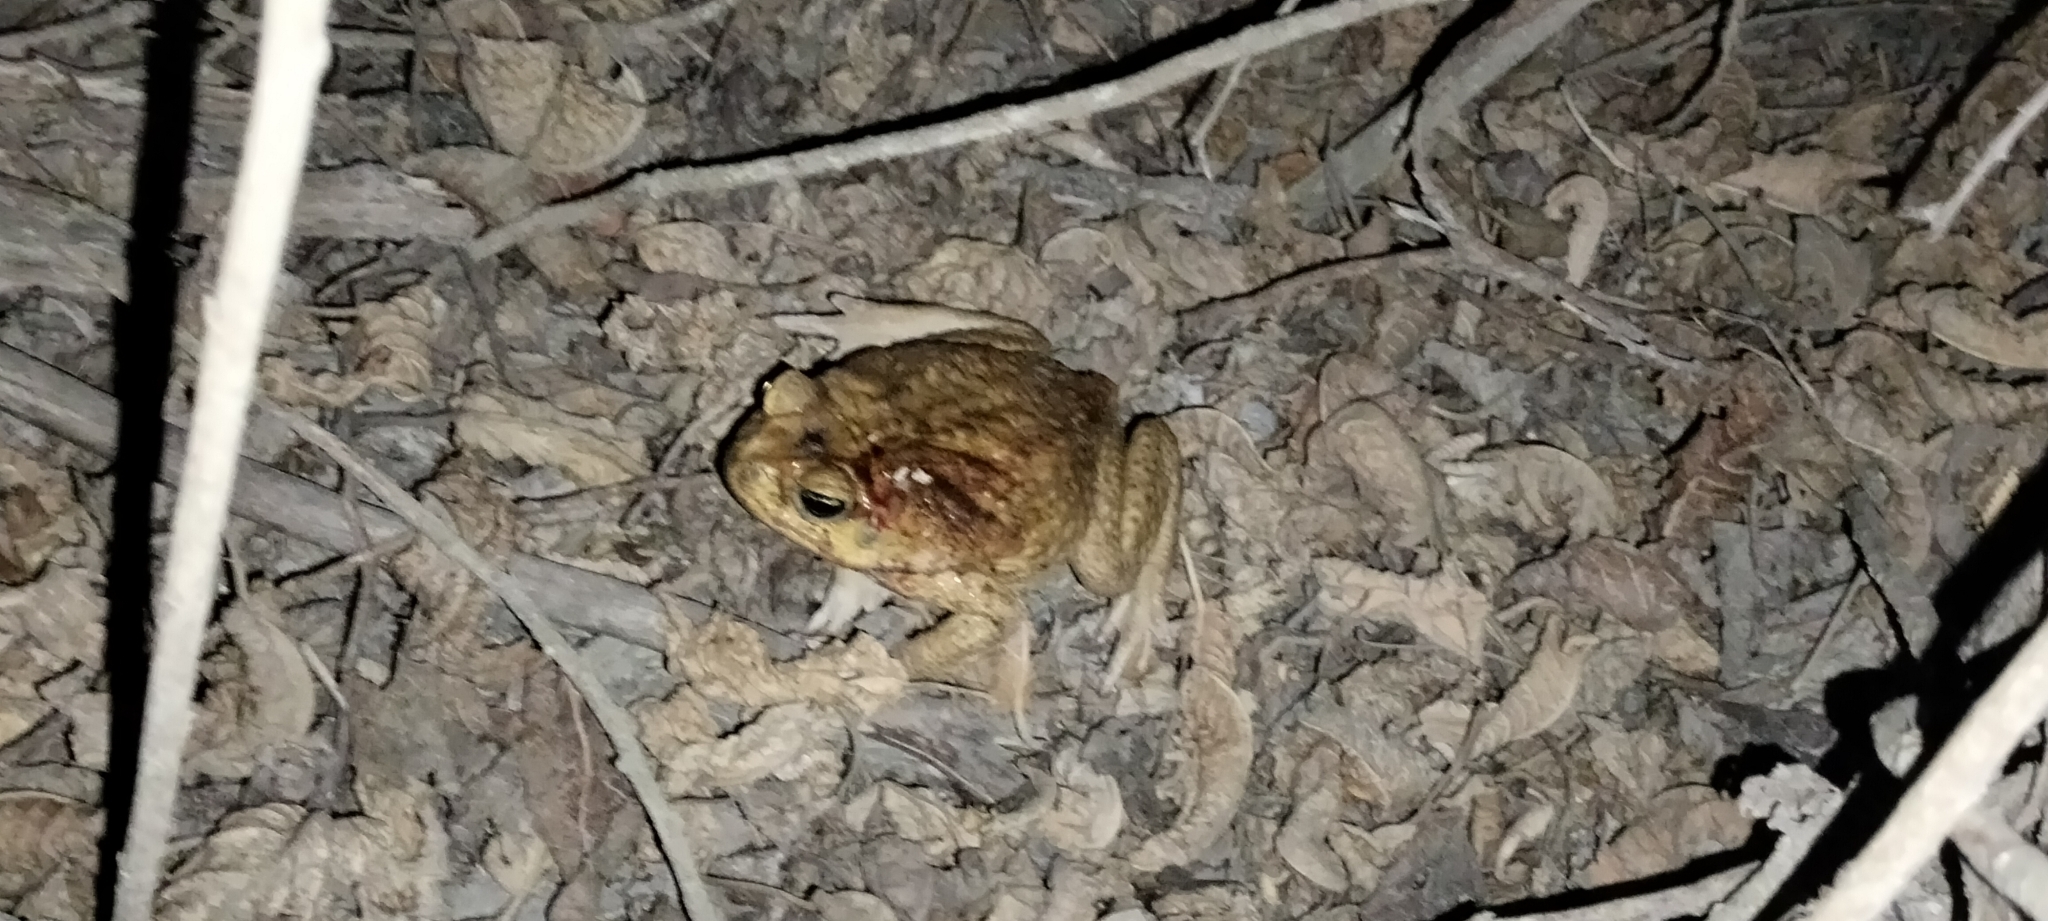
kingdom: Animalia
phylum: Chordata
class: Amphibia
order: Anura
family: Bufonidae
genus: Rhinella
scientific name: Rhinella horribilis
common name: Mesoamerican cane toad
